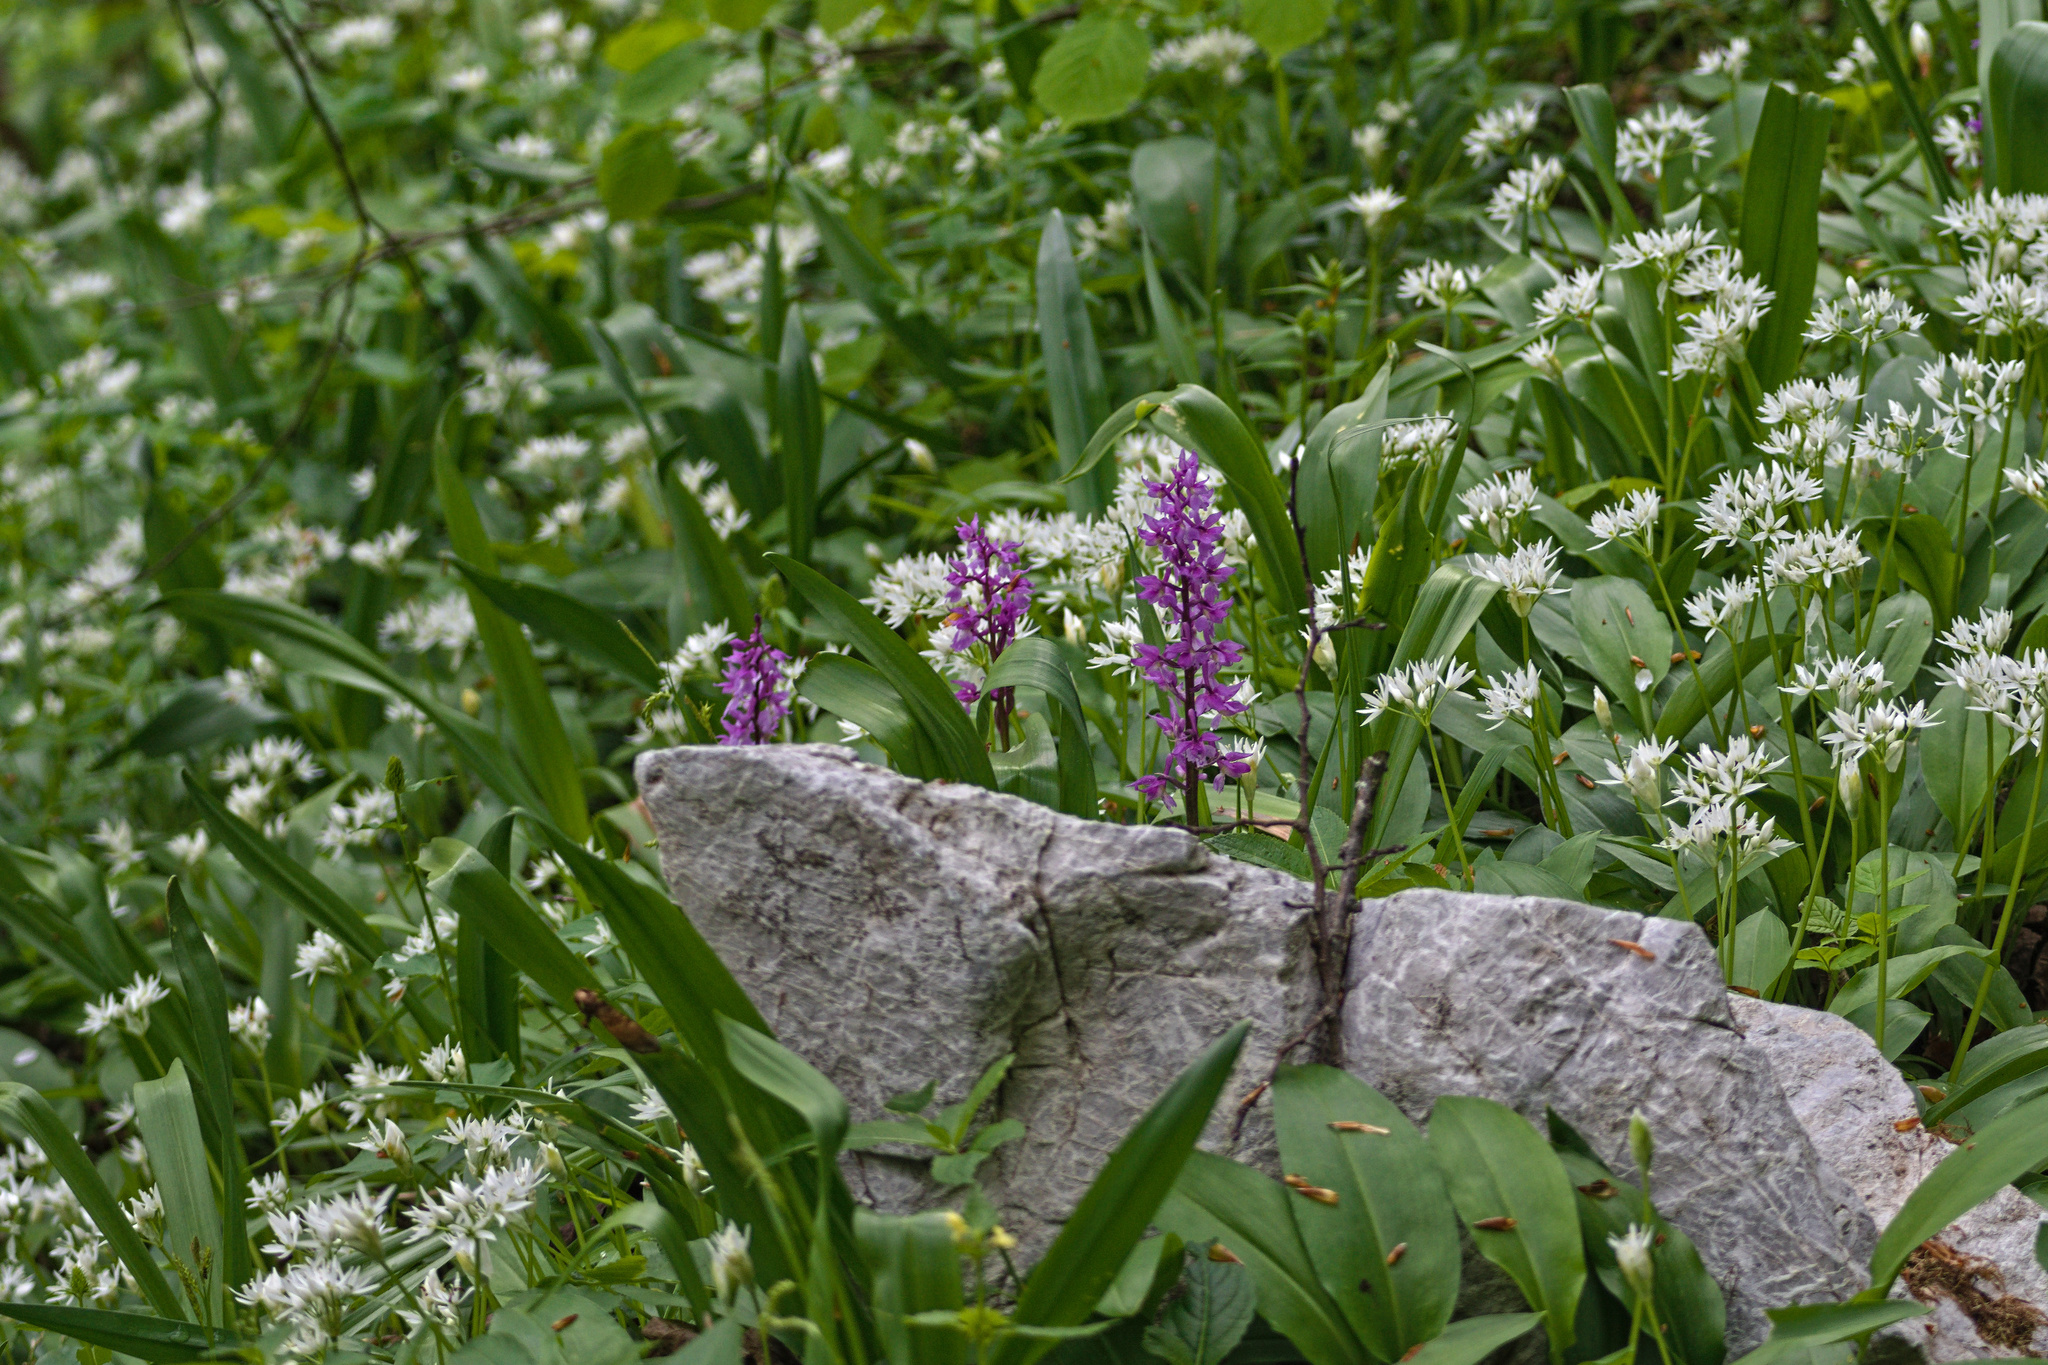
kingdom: Plantae
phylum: Tracheophyta
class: Liliopsida
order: Asparagales
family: Orchidaceae
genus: Orchis
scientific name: Orchis mascula
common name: Early-purple orchid
